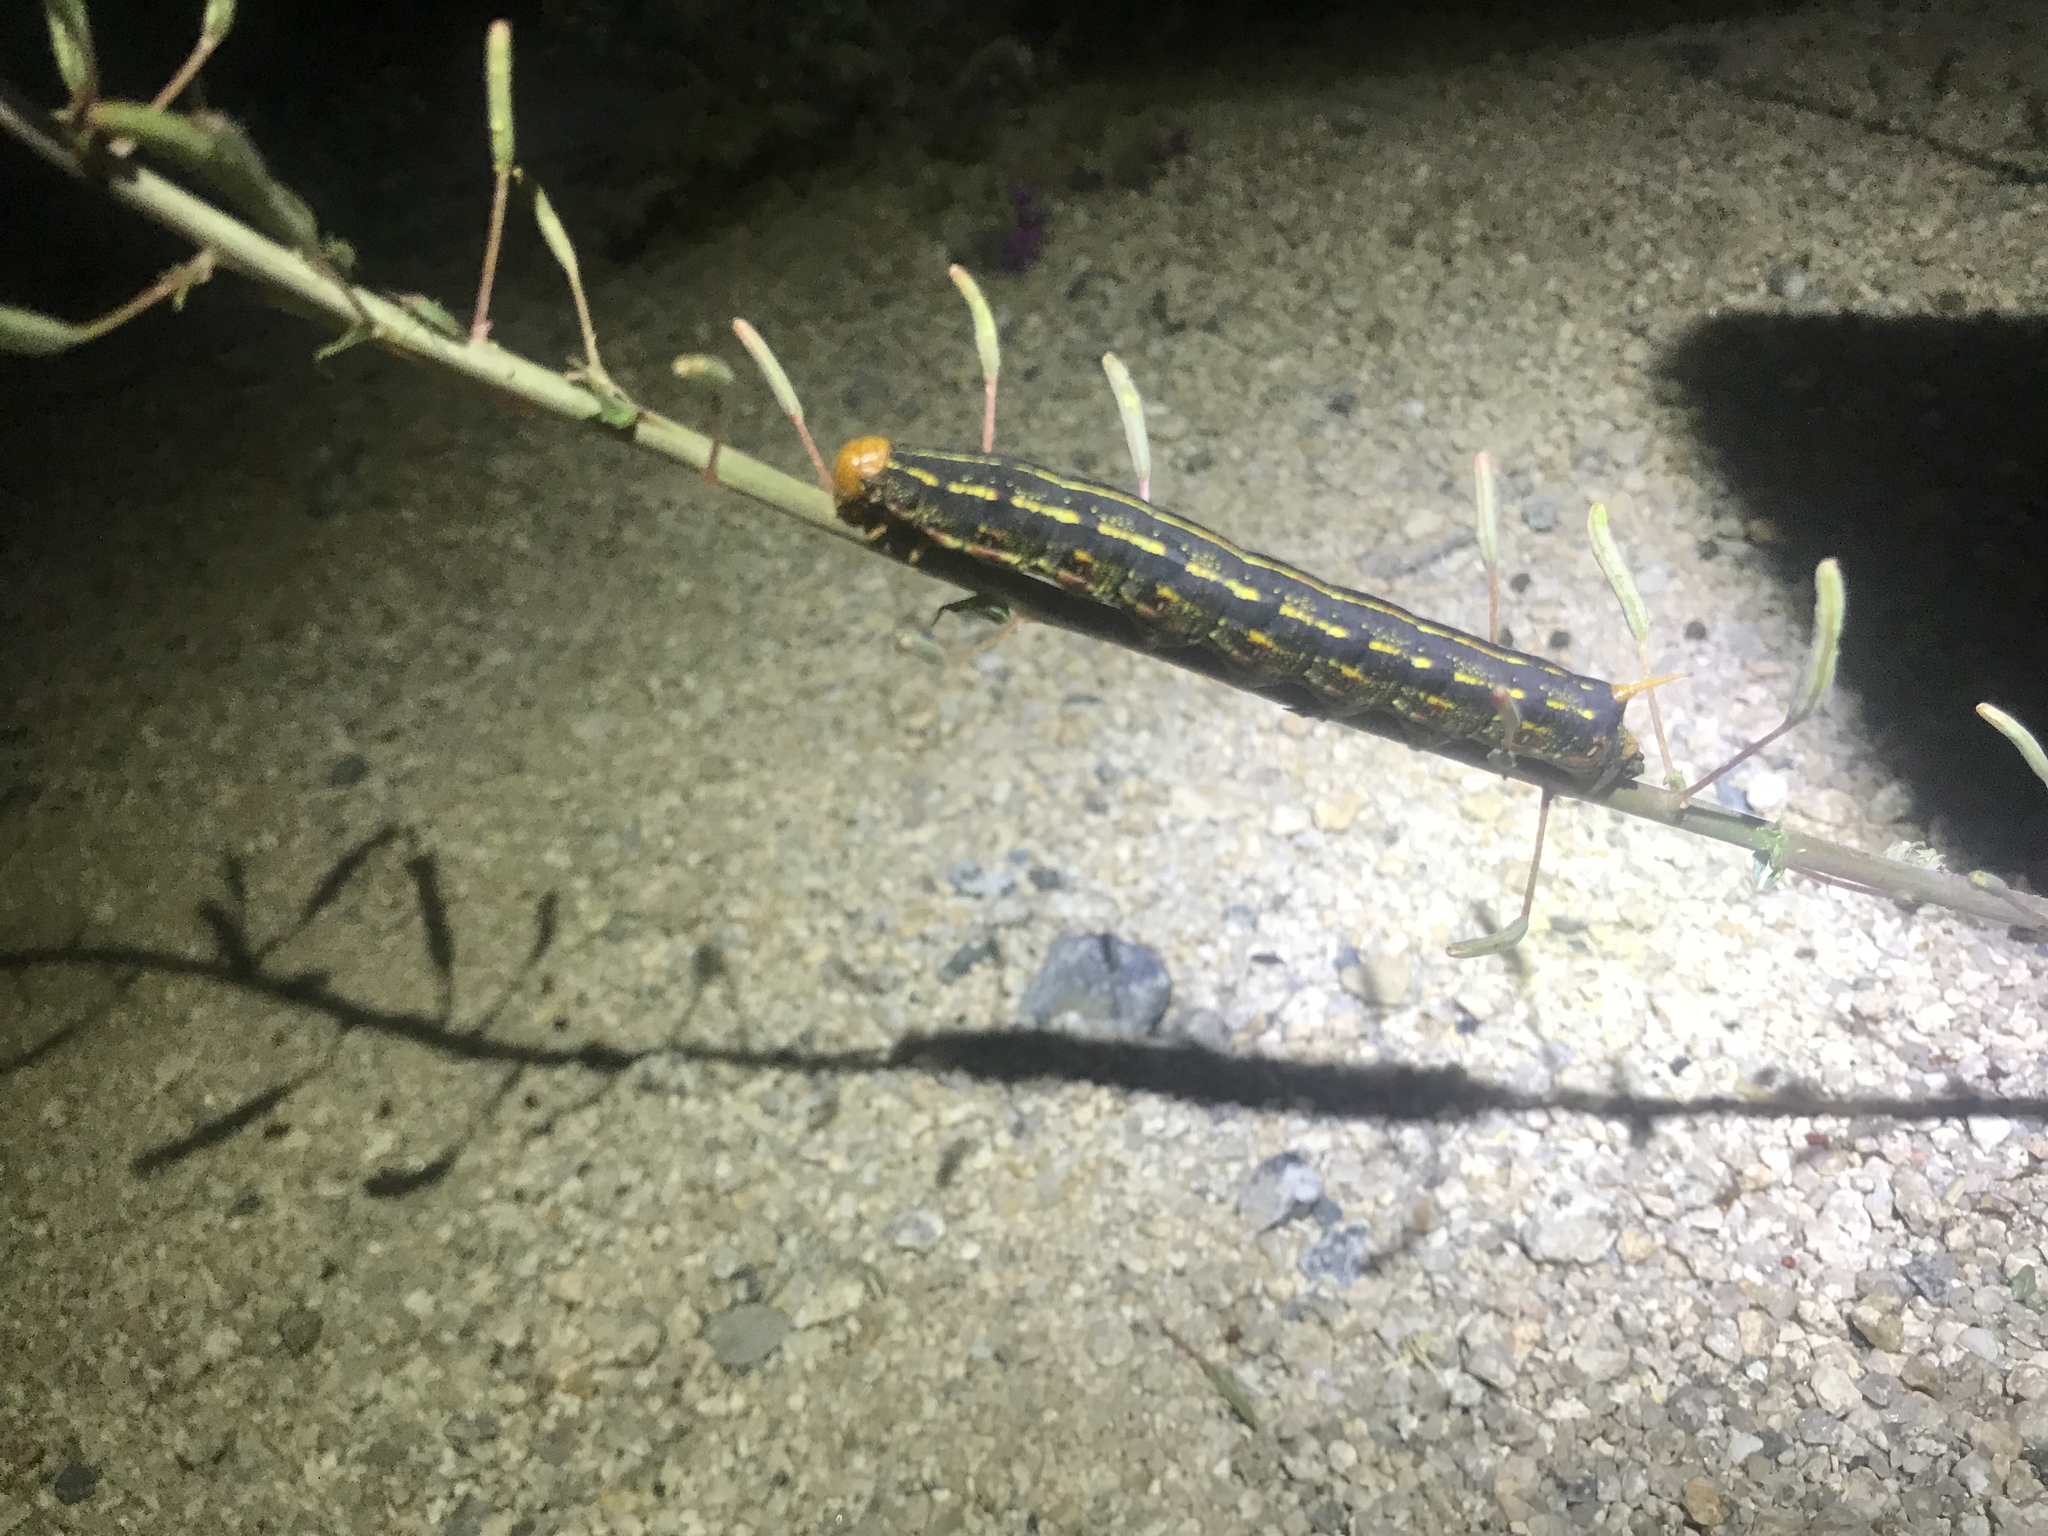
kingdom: Animalia
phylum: Arthropoda
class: Insecta
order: Lepidoptera
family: Sphingidae
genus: Hyles
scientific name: Hyles lineata
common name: White-lined sphinx
